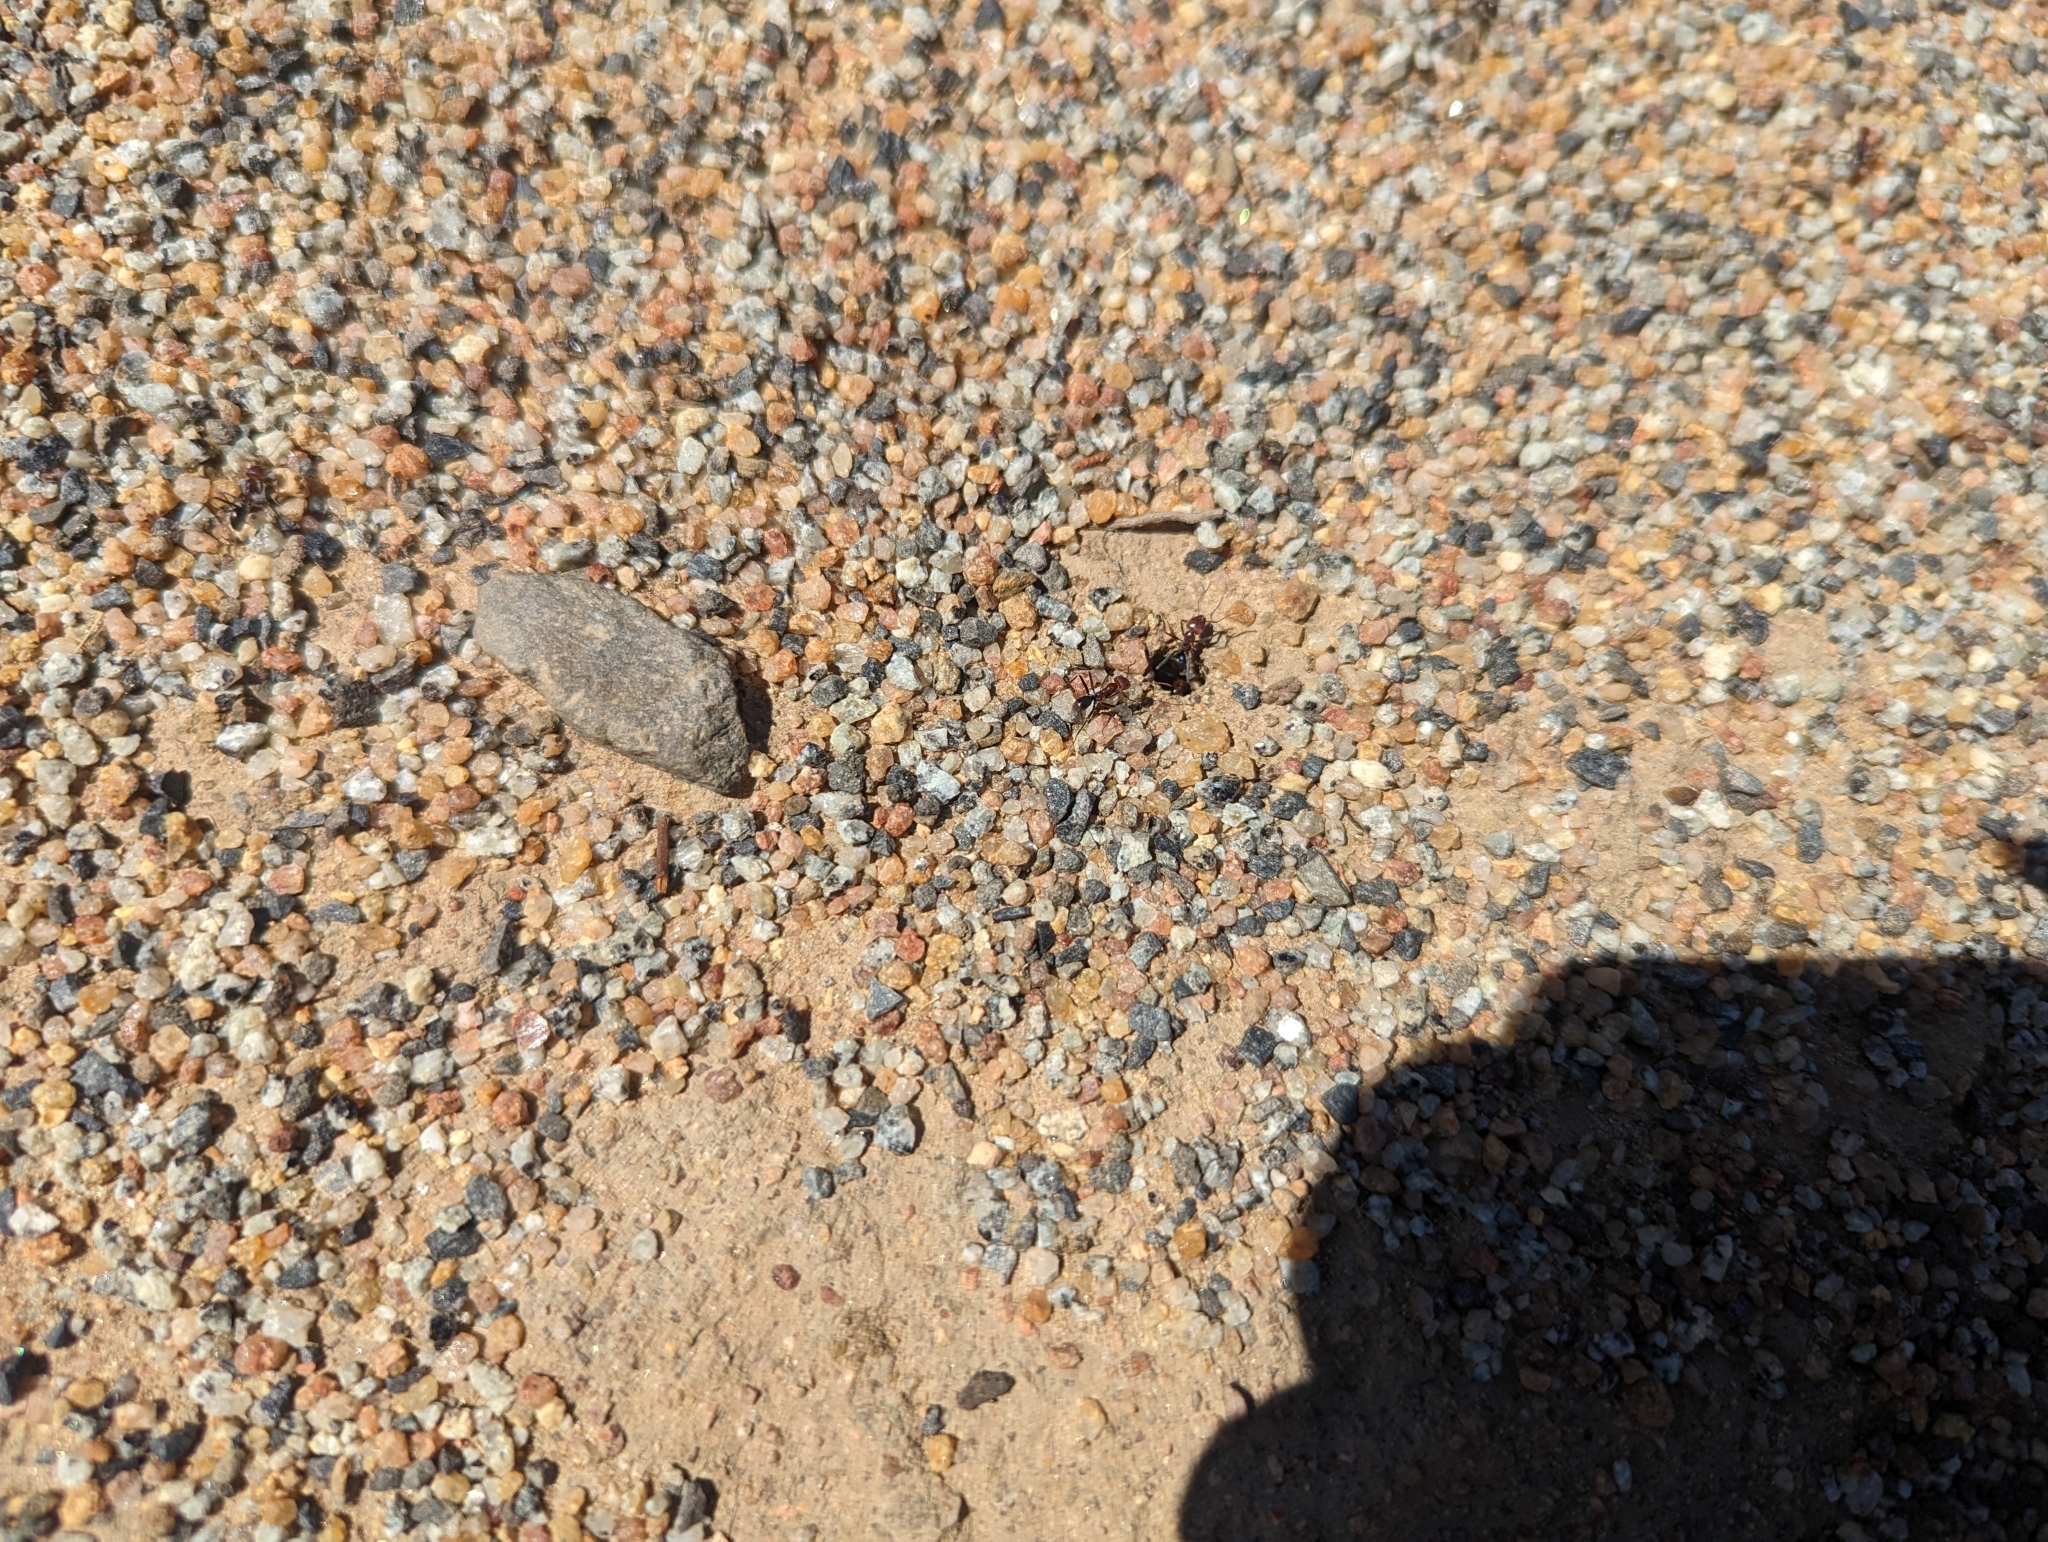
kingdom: Animalia
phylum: Arthropoda
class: Insecta
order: Hymenoptera
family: Formicidae
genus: Iridomyrmex
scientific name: Iridomyrmex purpureus
